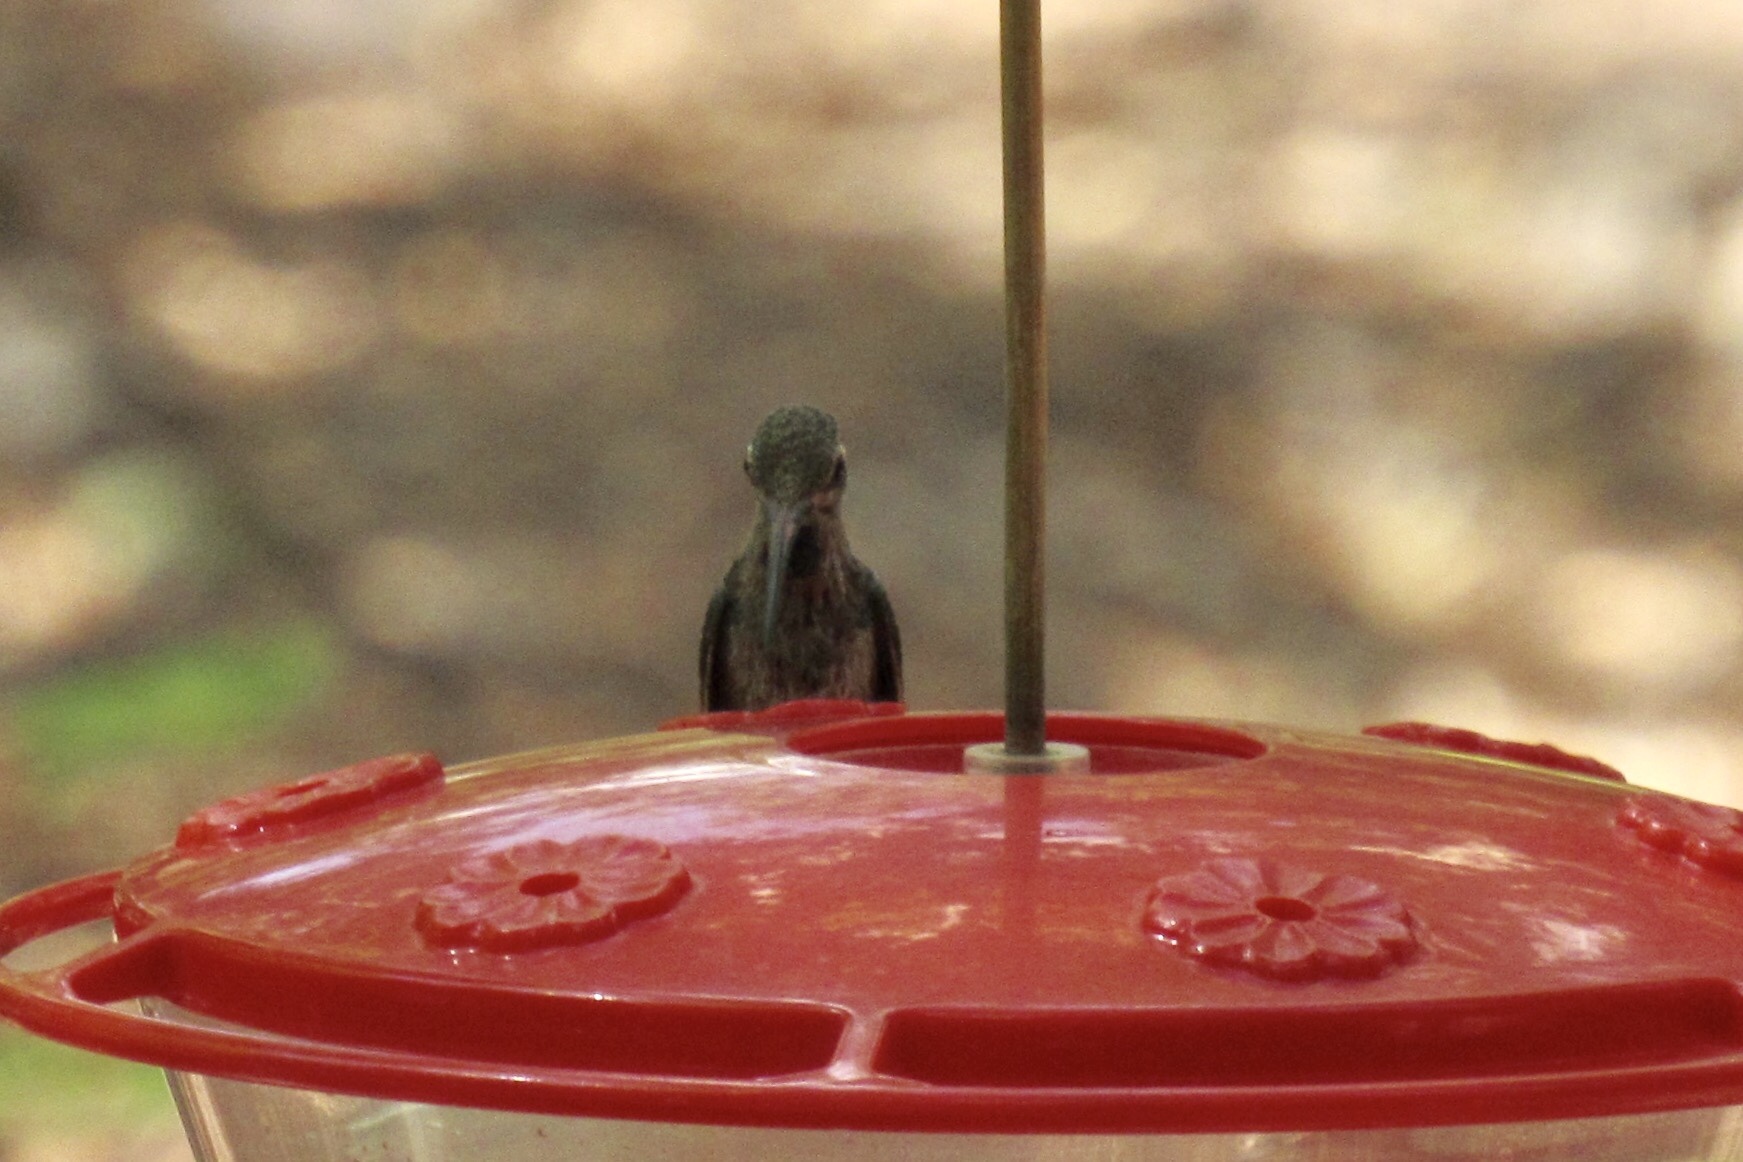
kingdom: Animalia
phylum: Chordata
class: Aves
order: Apodiformes
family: Trochilidae
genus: Eugenes
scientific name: Eugenes fulgens
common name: Magnificent hummingbird
